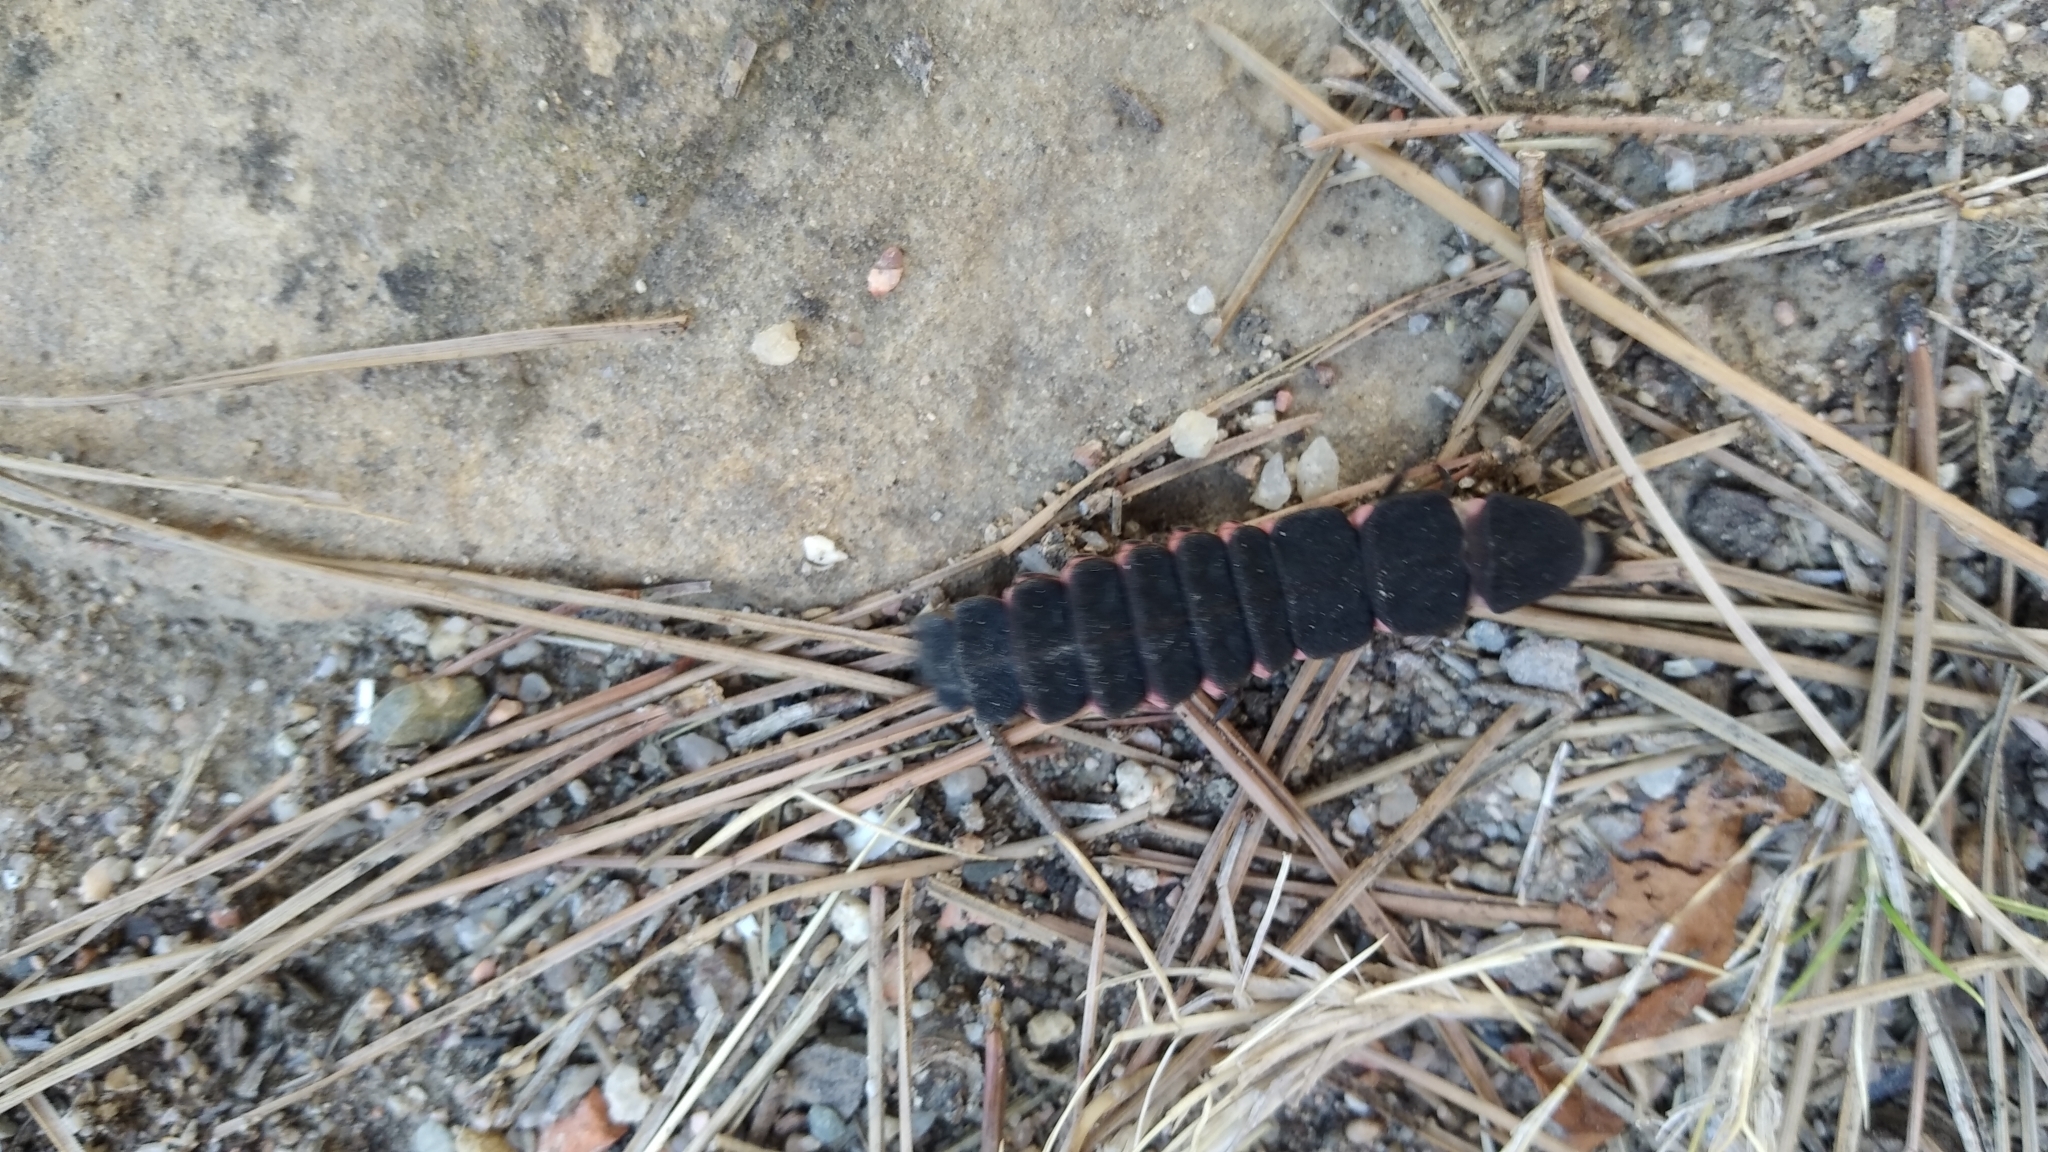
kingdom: Animalia
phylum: Arthropoda
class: Insecta
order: Coleoptera
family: Lampyridae
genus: Nyctophila
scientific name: Nyctophila reichii
